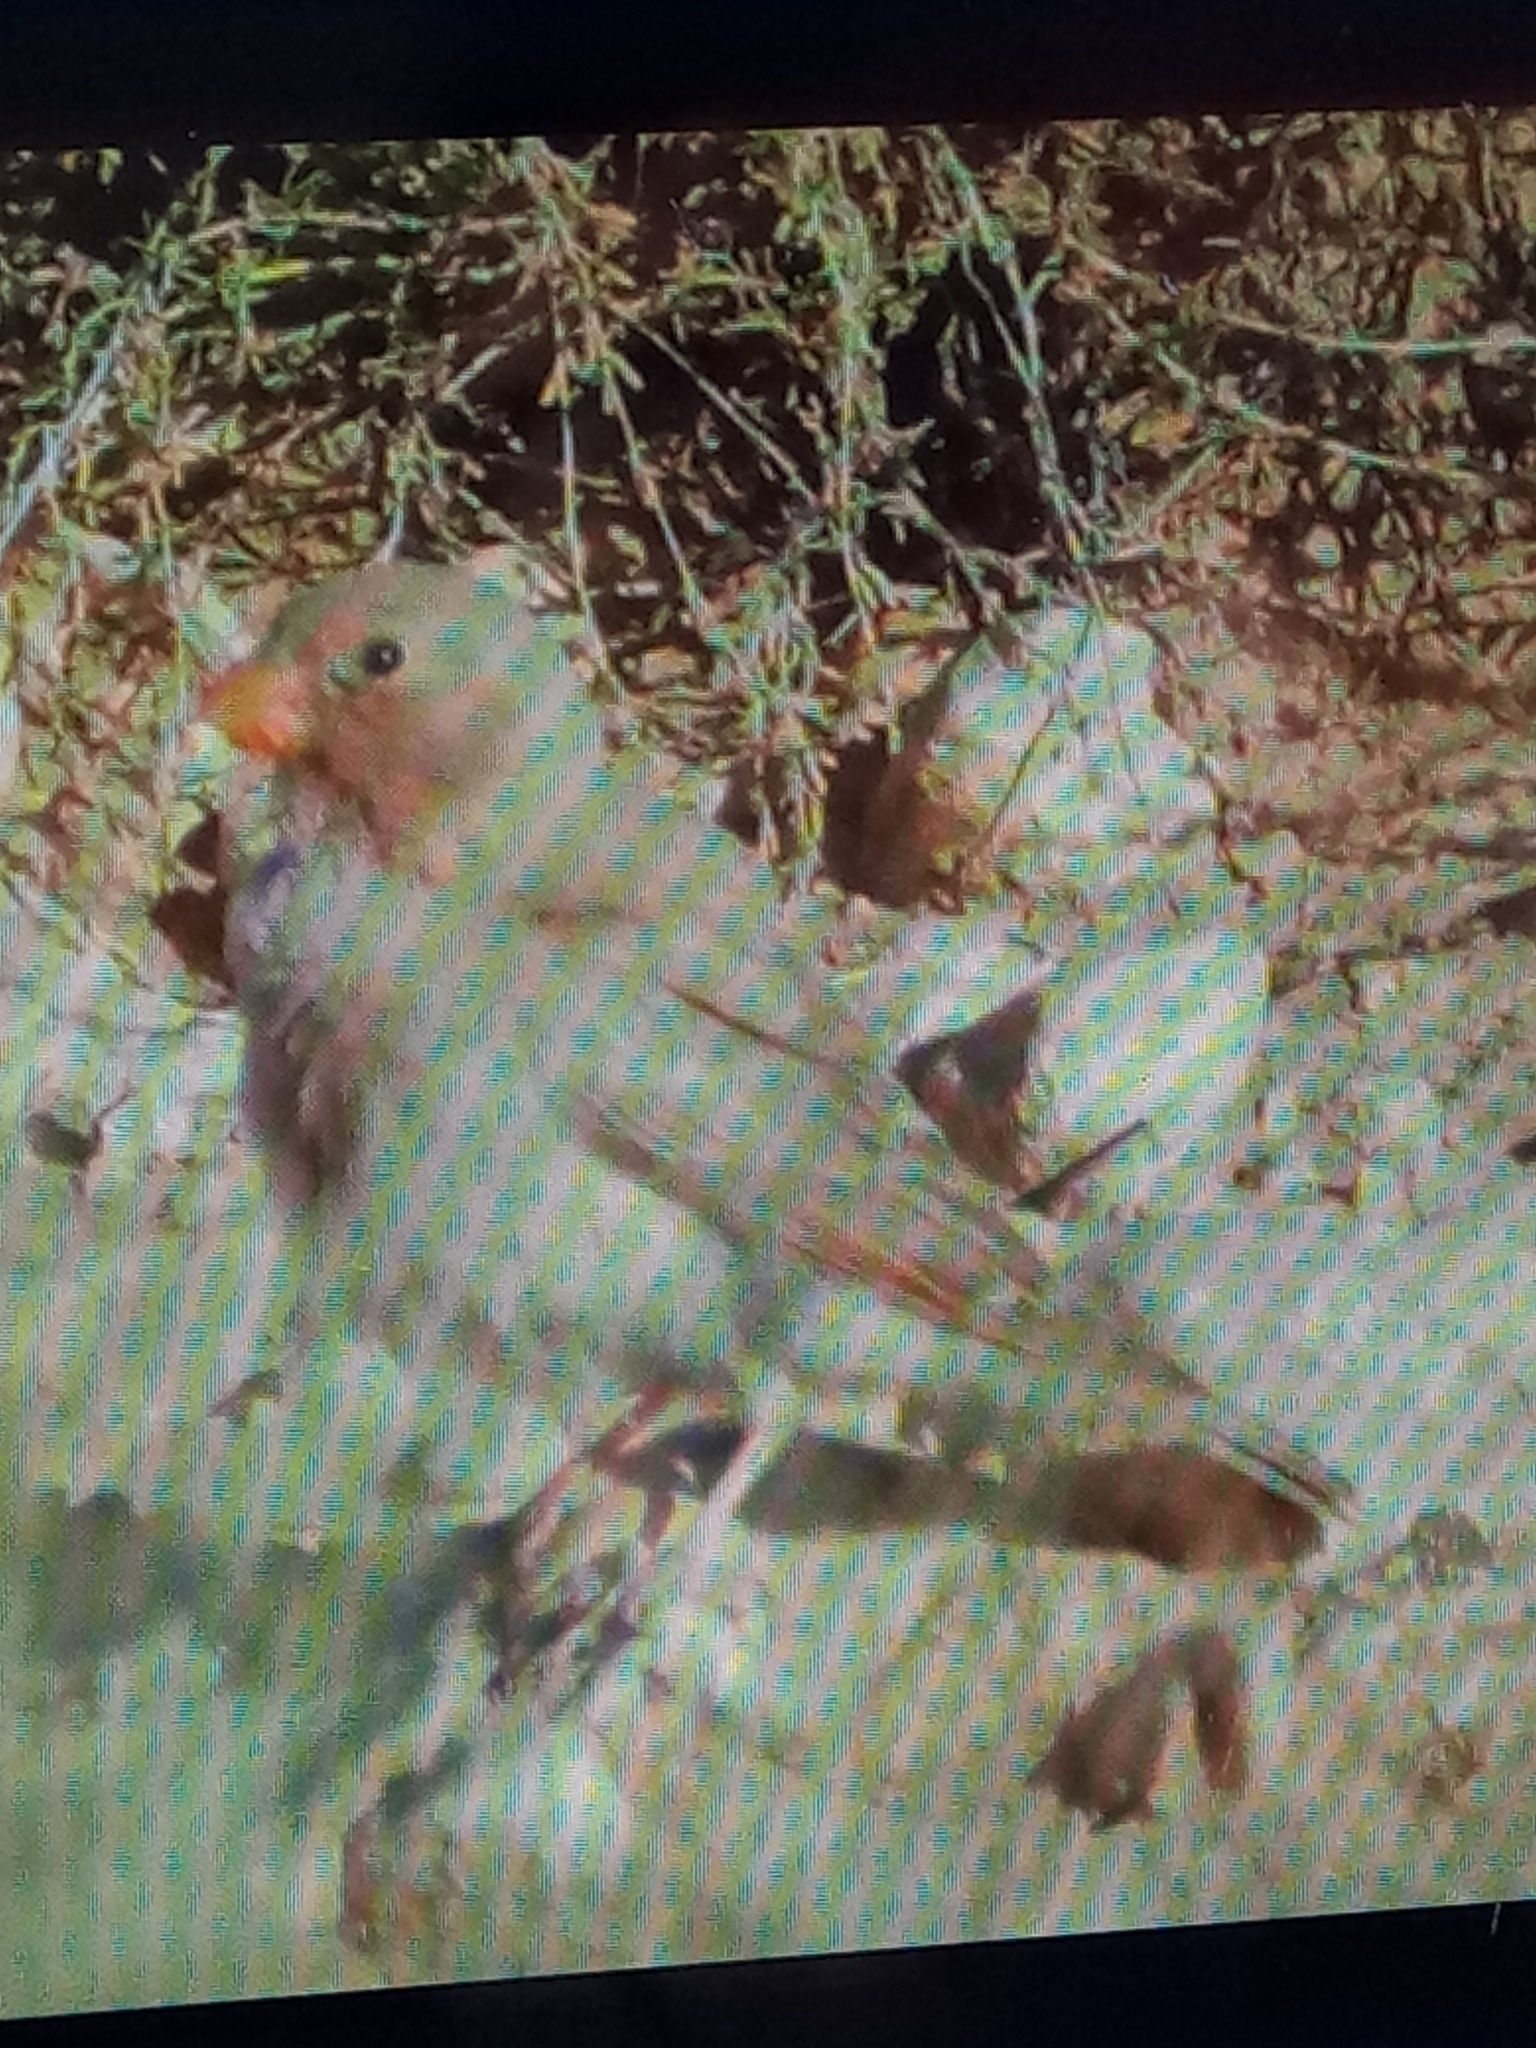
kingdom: Animalia
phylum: Chordata
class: Aves
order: Passeriformes
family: Fringillidae
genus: Bucanetes
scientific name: Bucanetes githagineus
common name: Trumpeter finch
